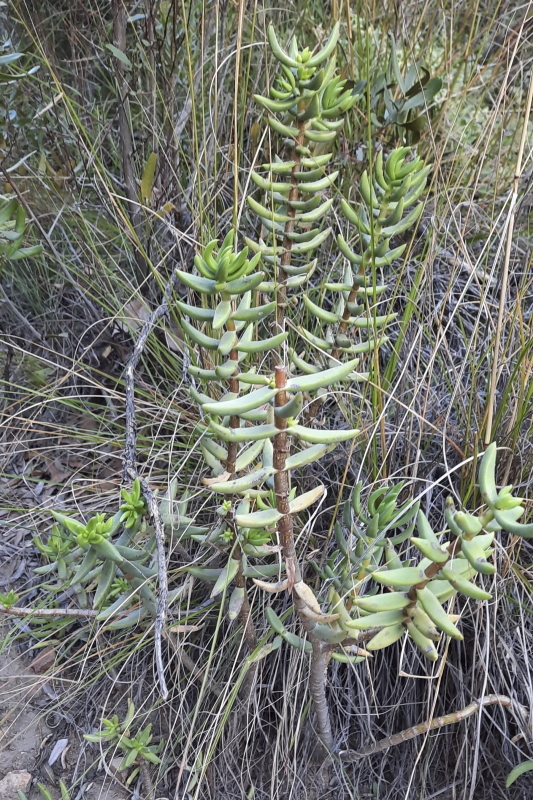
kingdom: Plantae
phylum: Tracheophyta
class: Magnoliopsida
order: Saxifragales
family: Crassulaceae
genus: Crassula
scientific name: Crassula tetragona
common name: Pygmyweed
